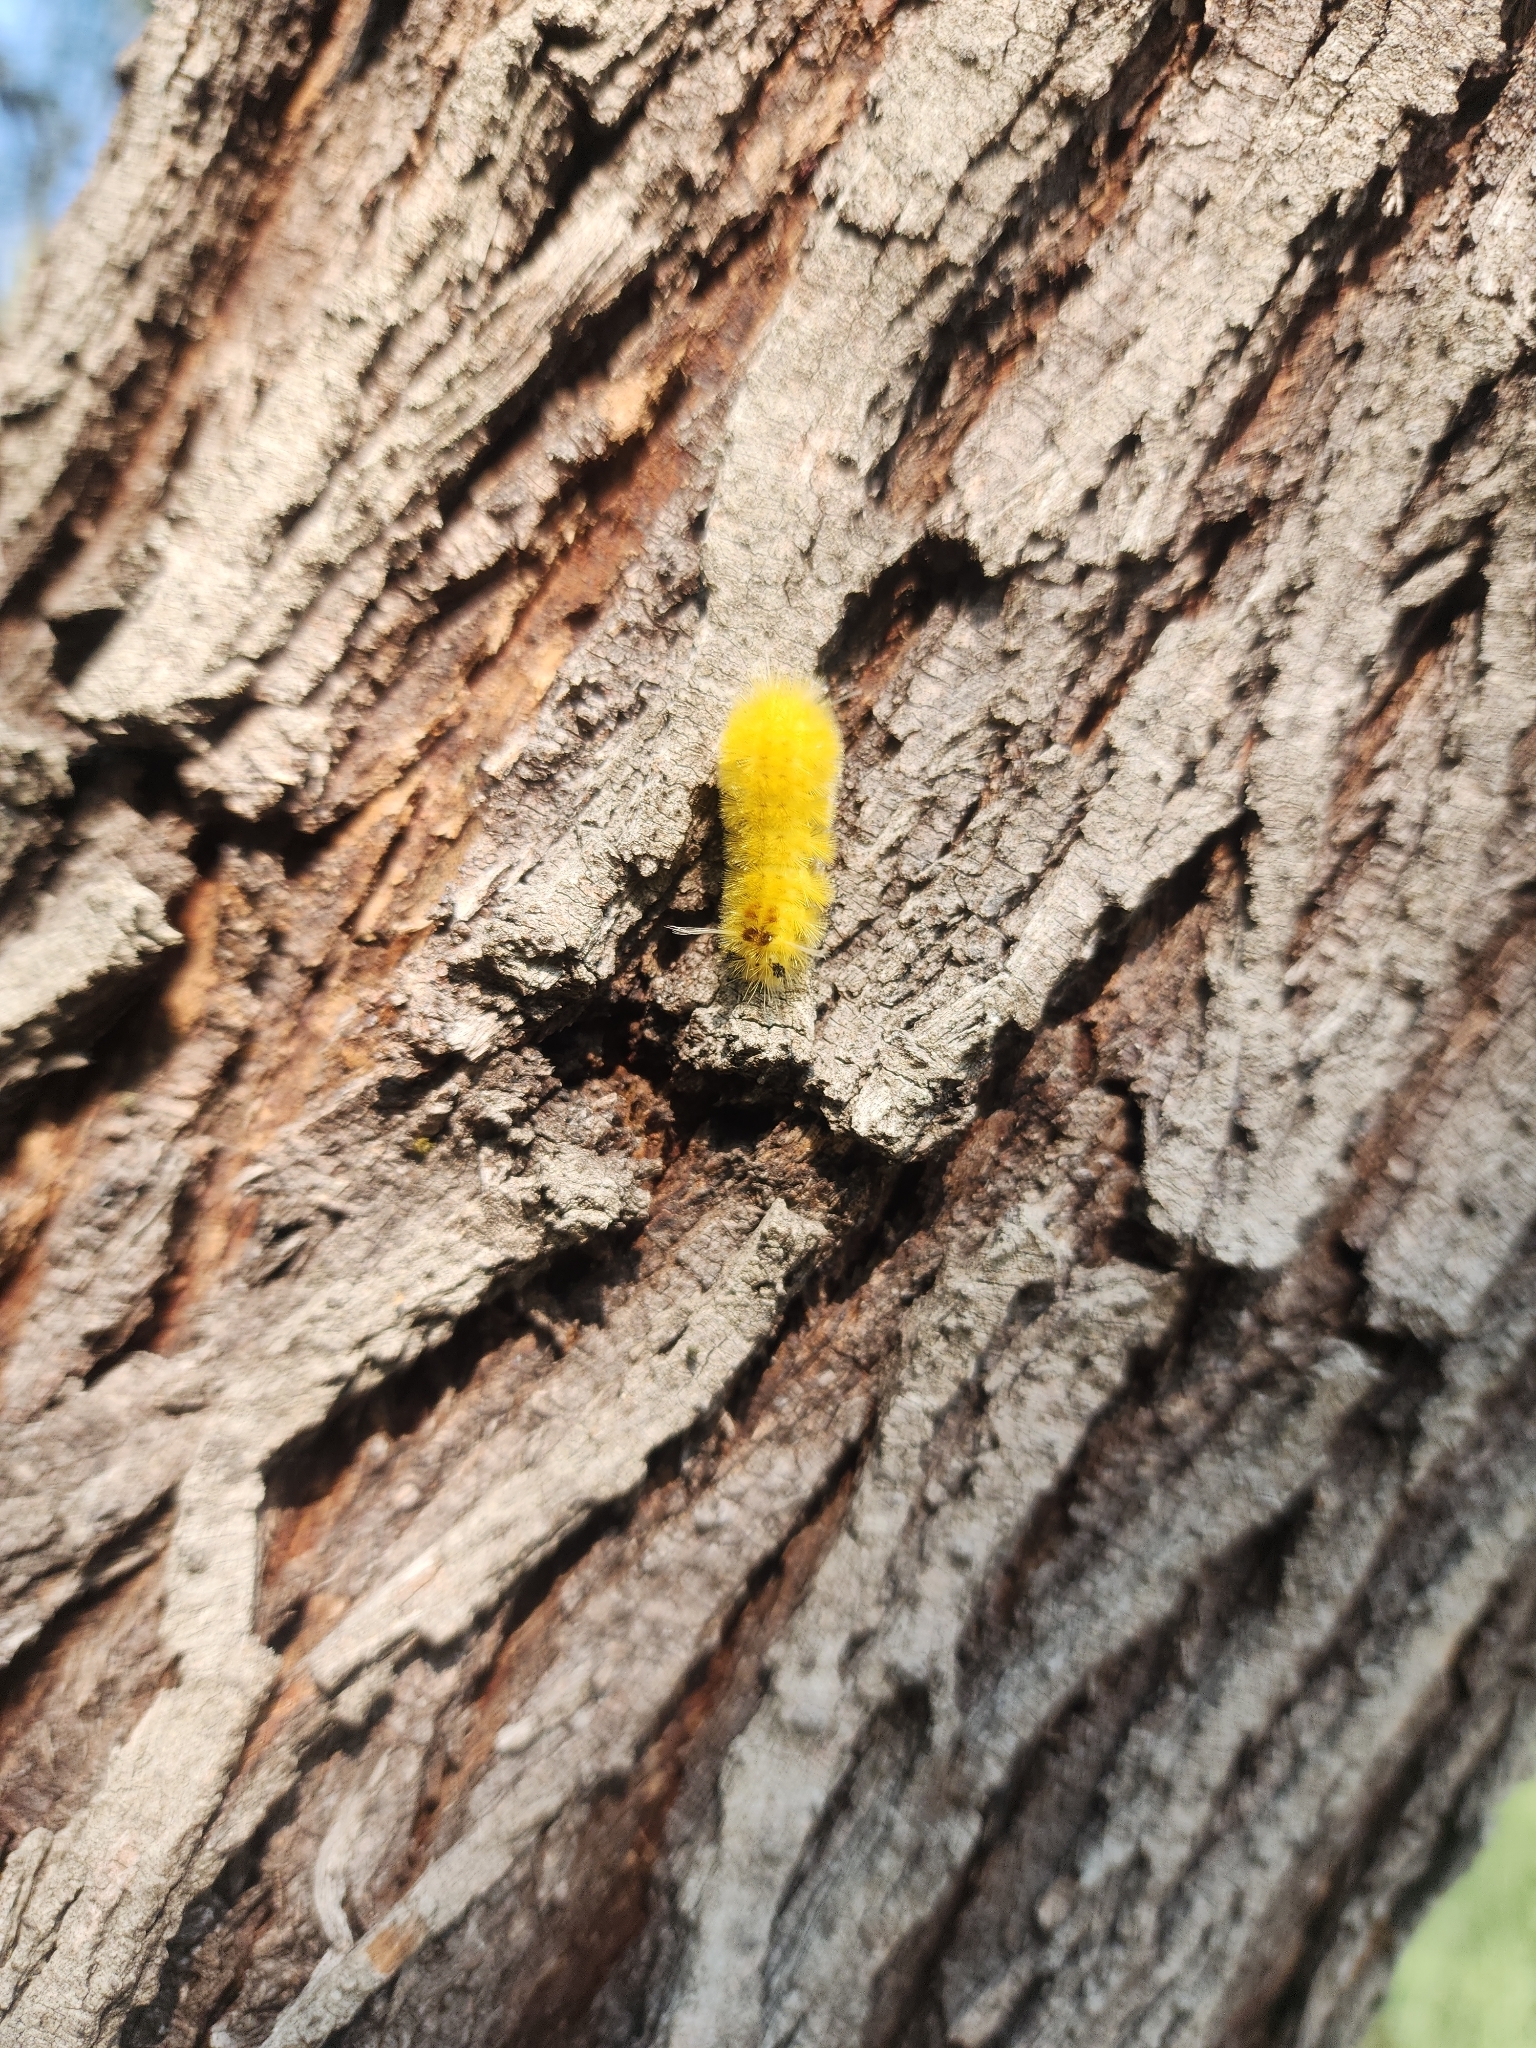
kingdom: Animalia
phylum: Arthropoda
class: Insecta
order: Lepidoptera
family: Erebidae
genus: Lophocampa
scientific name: Lophocampa annulosa
